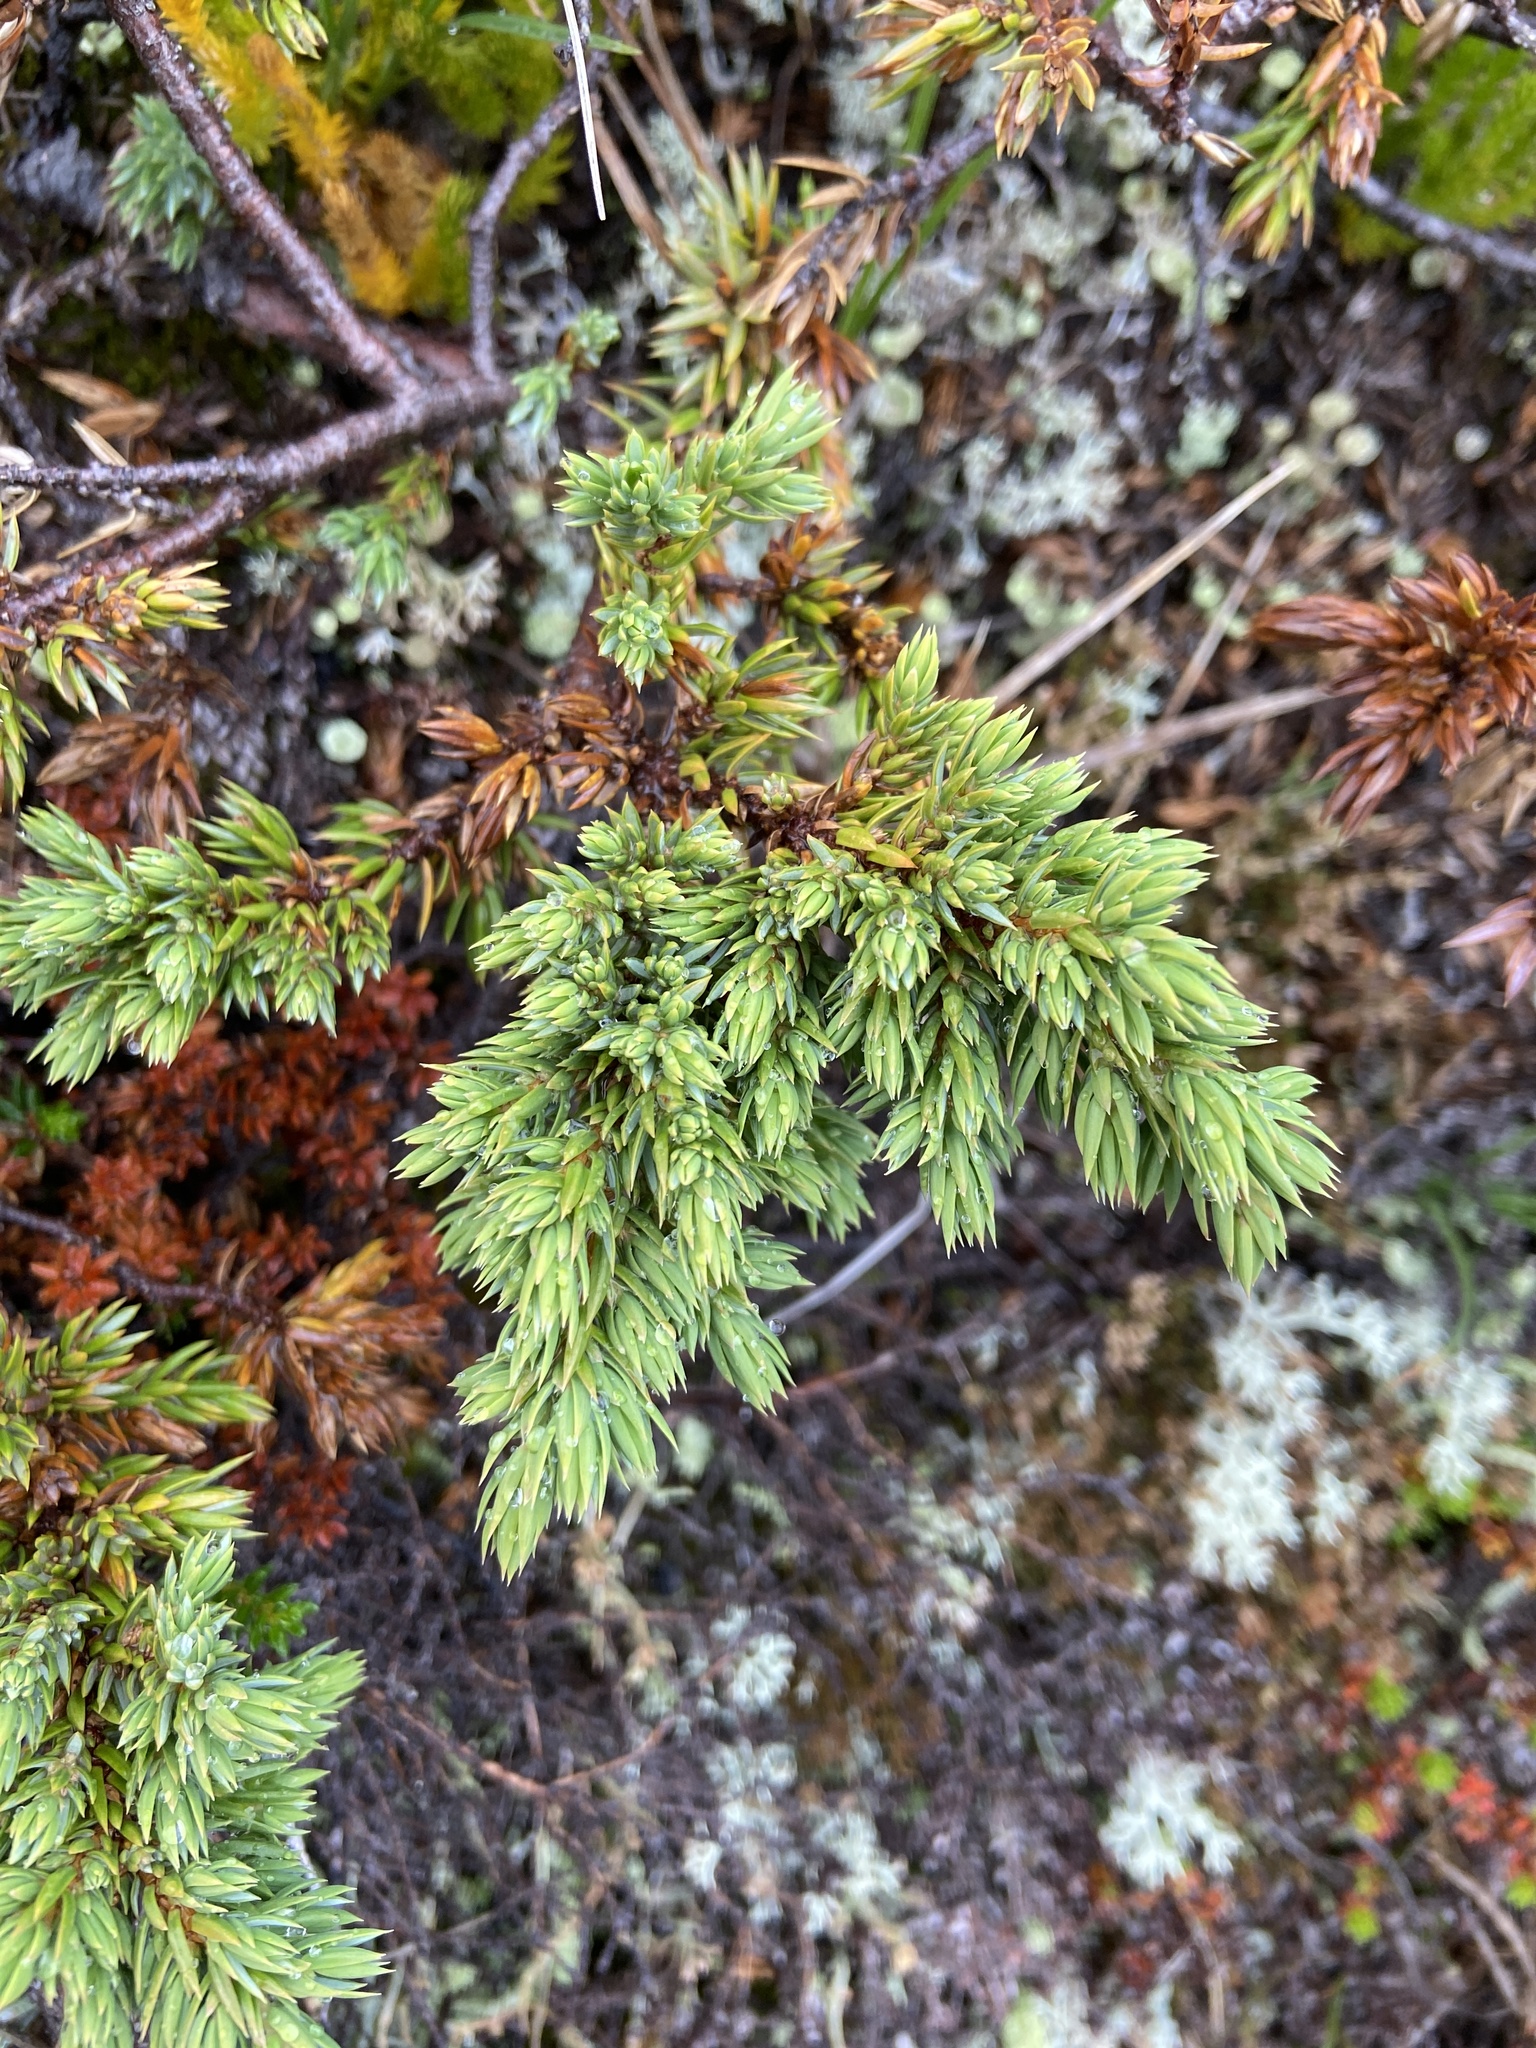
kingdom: Plantae
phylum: Tracheophyta
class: Pinopsida
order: Pinales
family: Cupressaceae
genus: Juniperus
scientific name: Juniperus communis
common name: Common juniper
